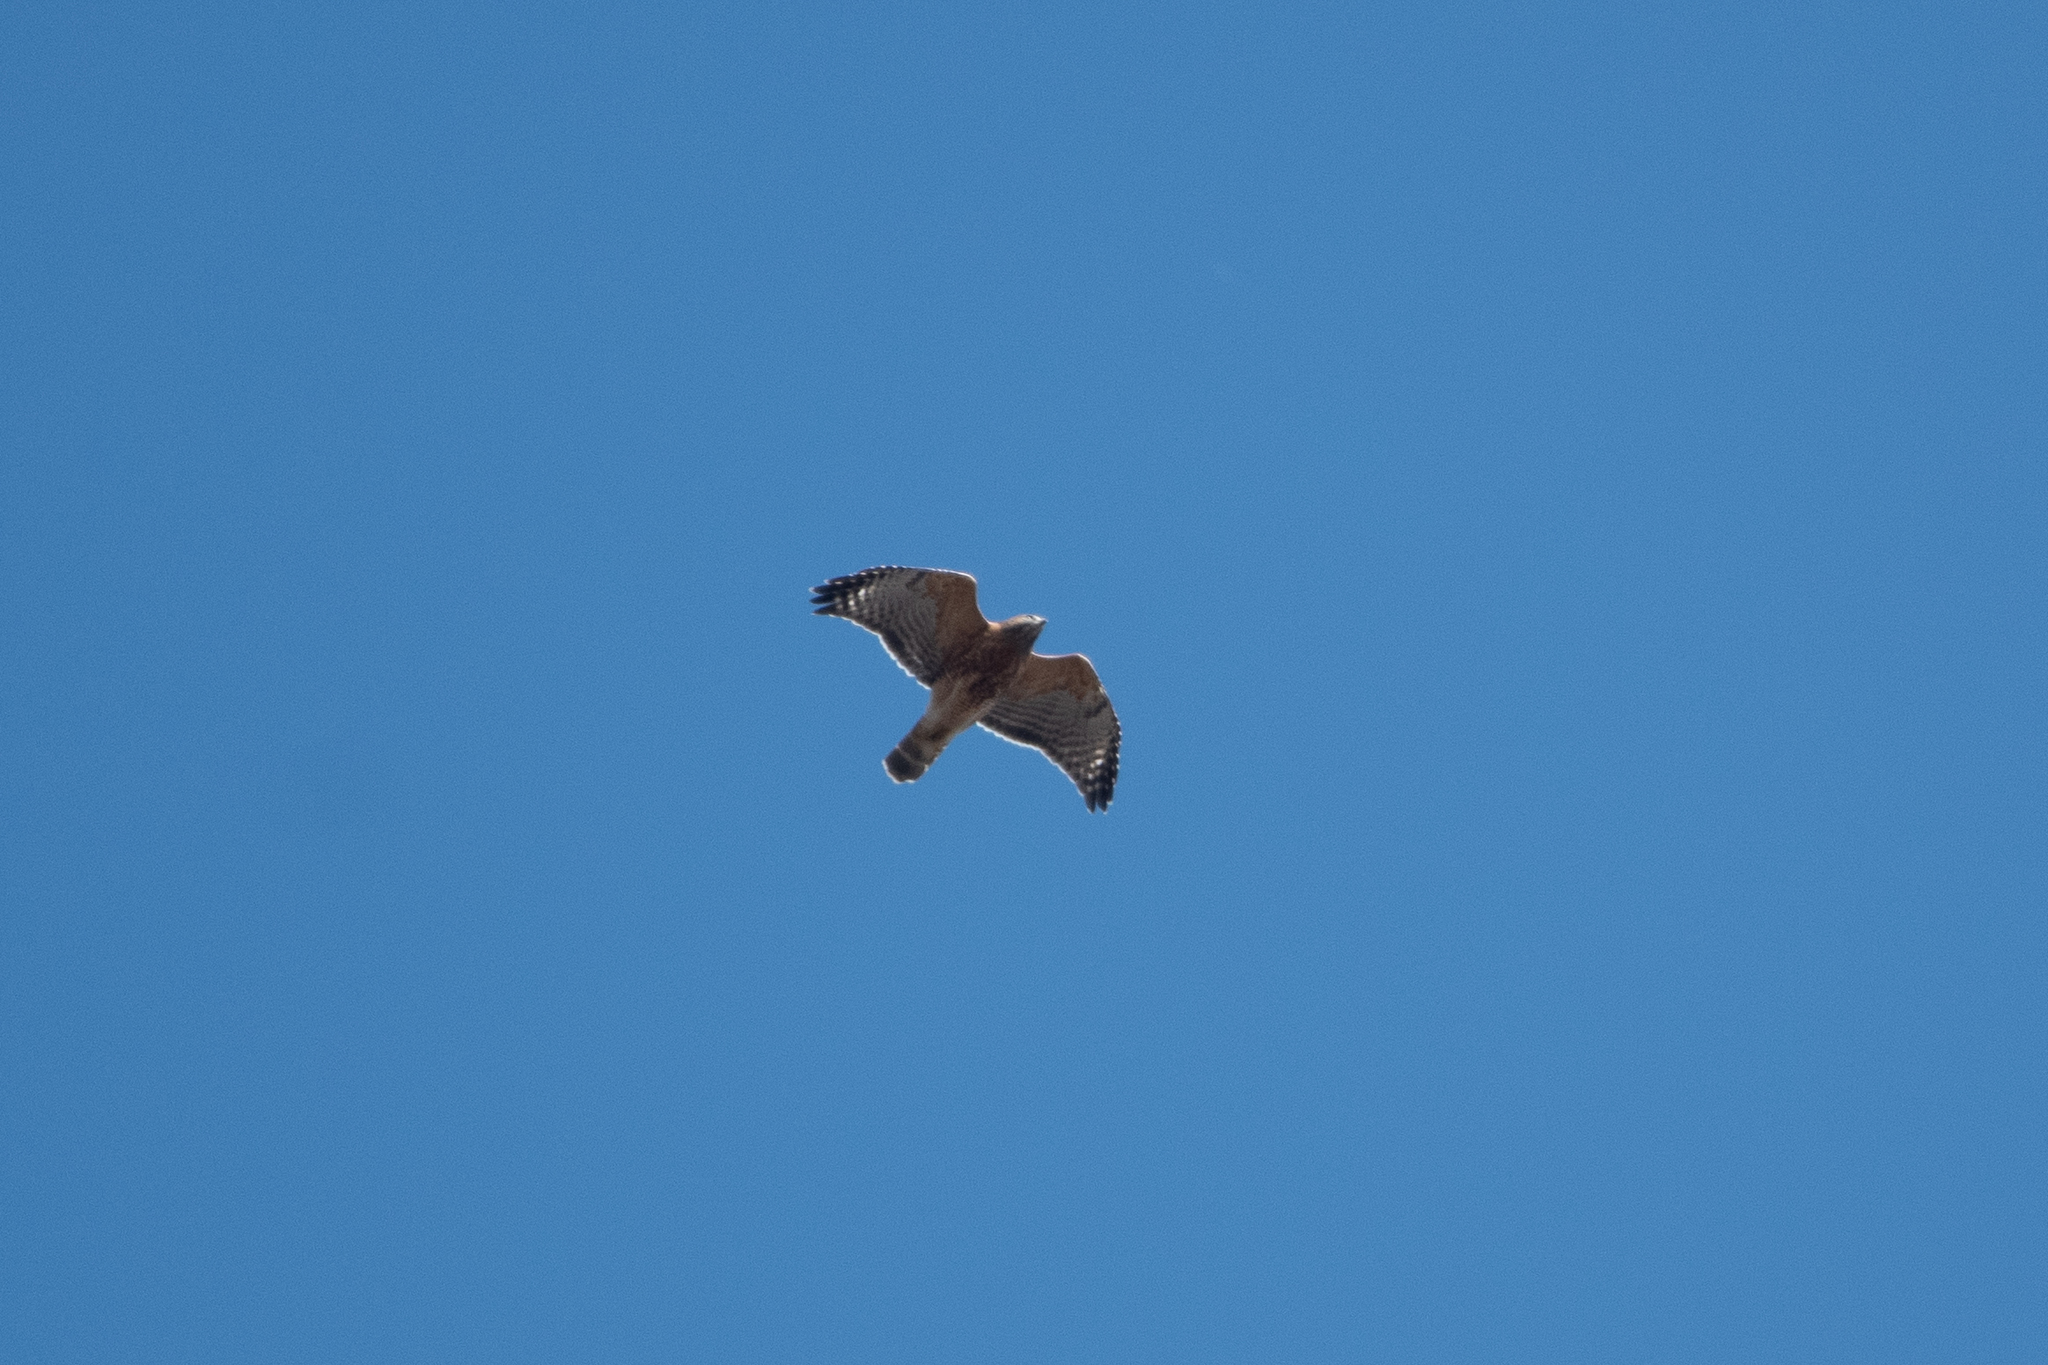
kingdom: Animalia
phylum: Chordata
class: Aves
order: Accipitriformes
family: Accipitridae
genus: Buteo
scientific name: Buteo lineatus
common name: Red-shouldered hawk
